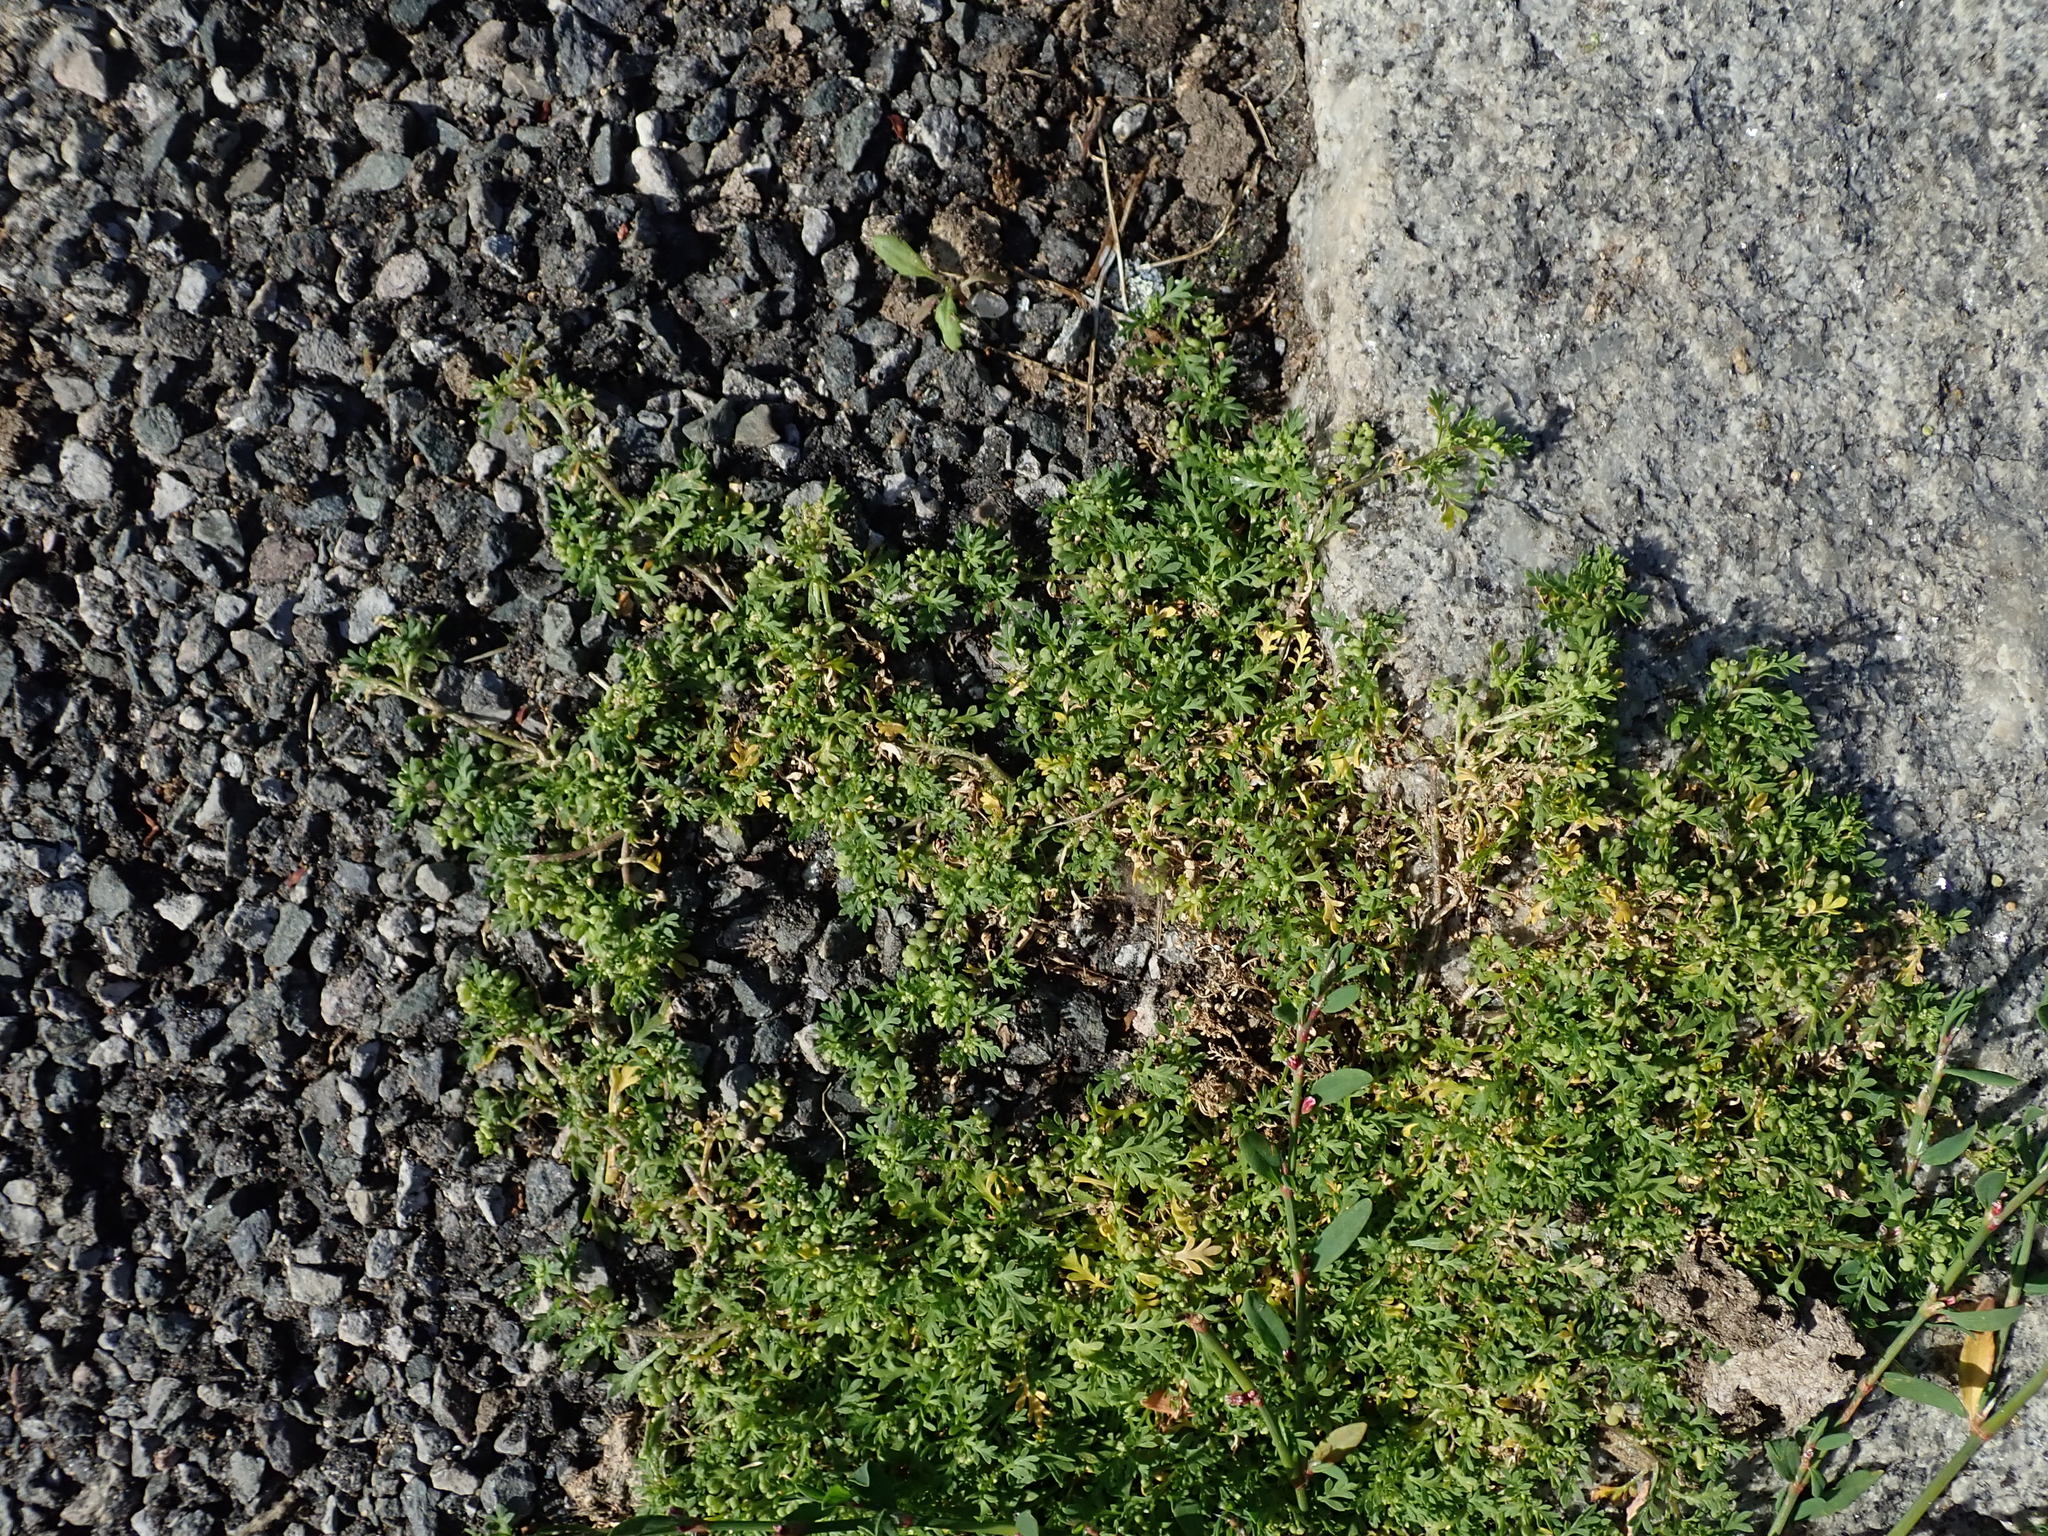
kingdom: Plantae
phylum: Tracheophyta
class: Magnoliopsida
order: Brassicales
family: Brassicaceae
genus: Lepidium
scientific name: Lepidium didymum
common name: Lesser swinecress
